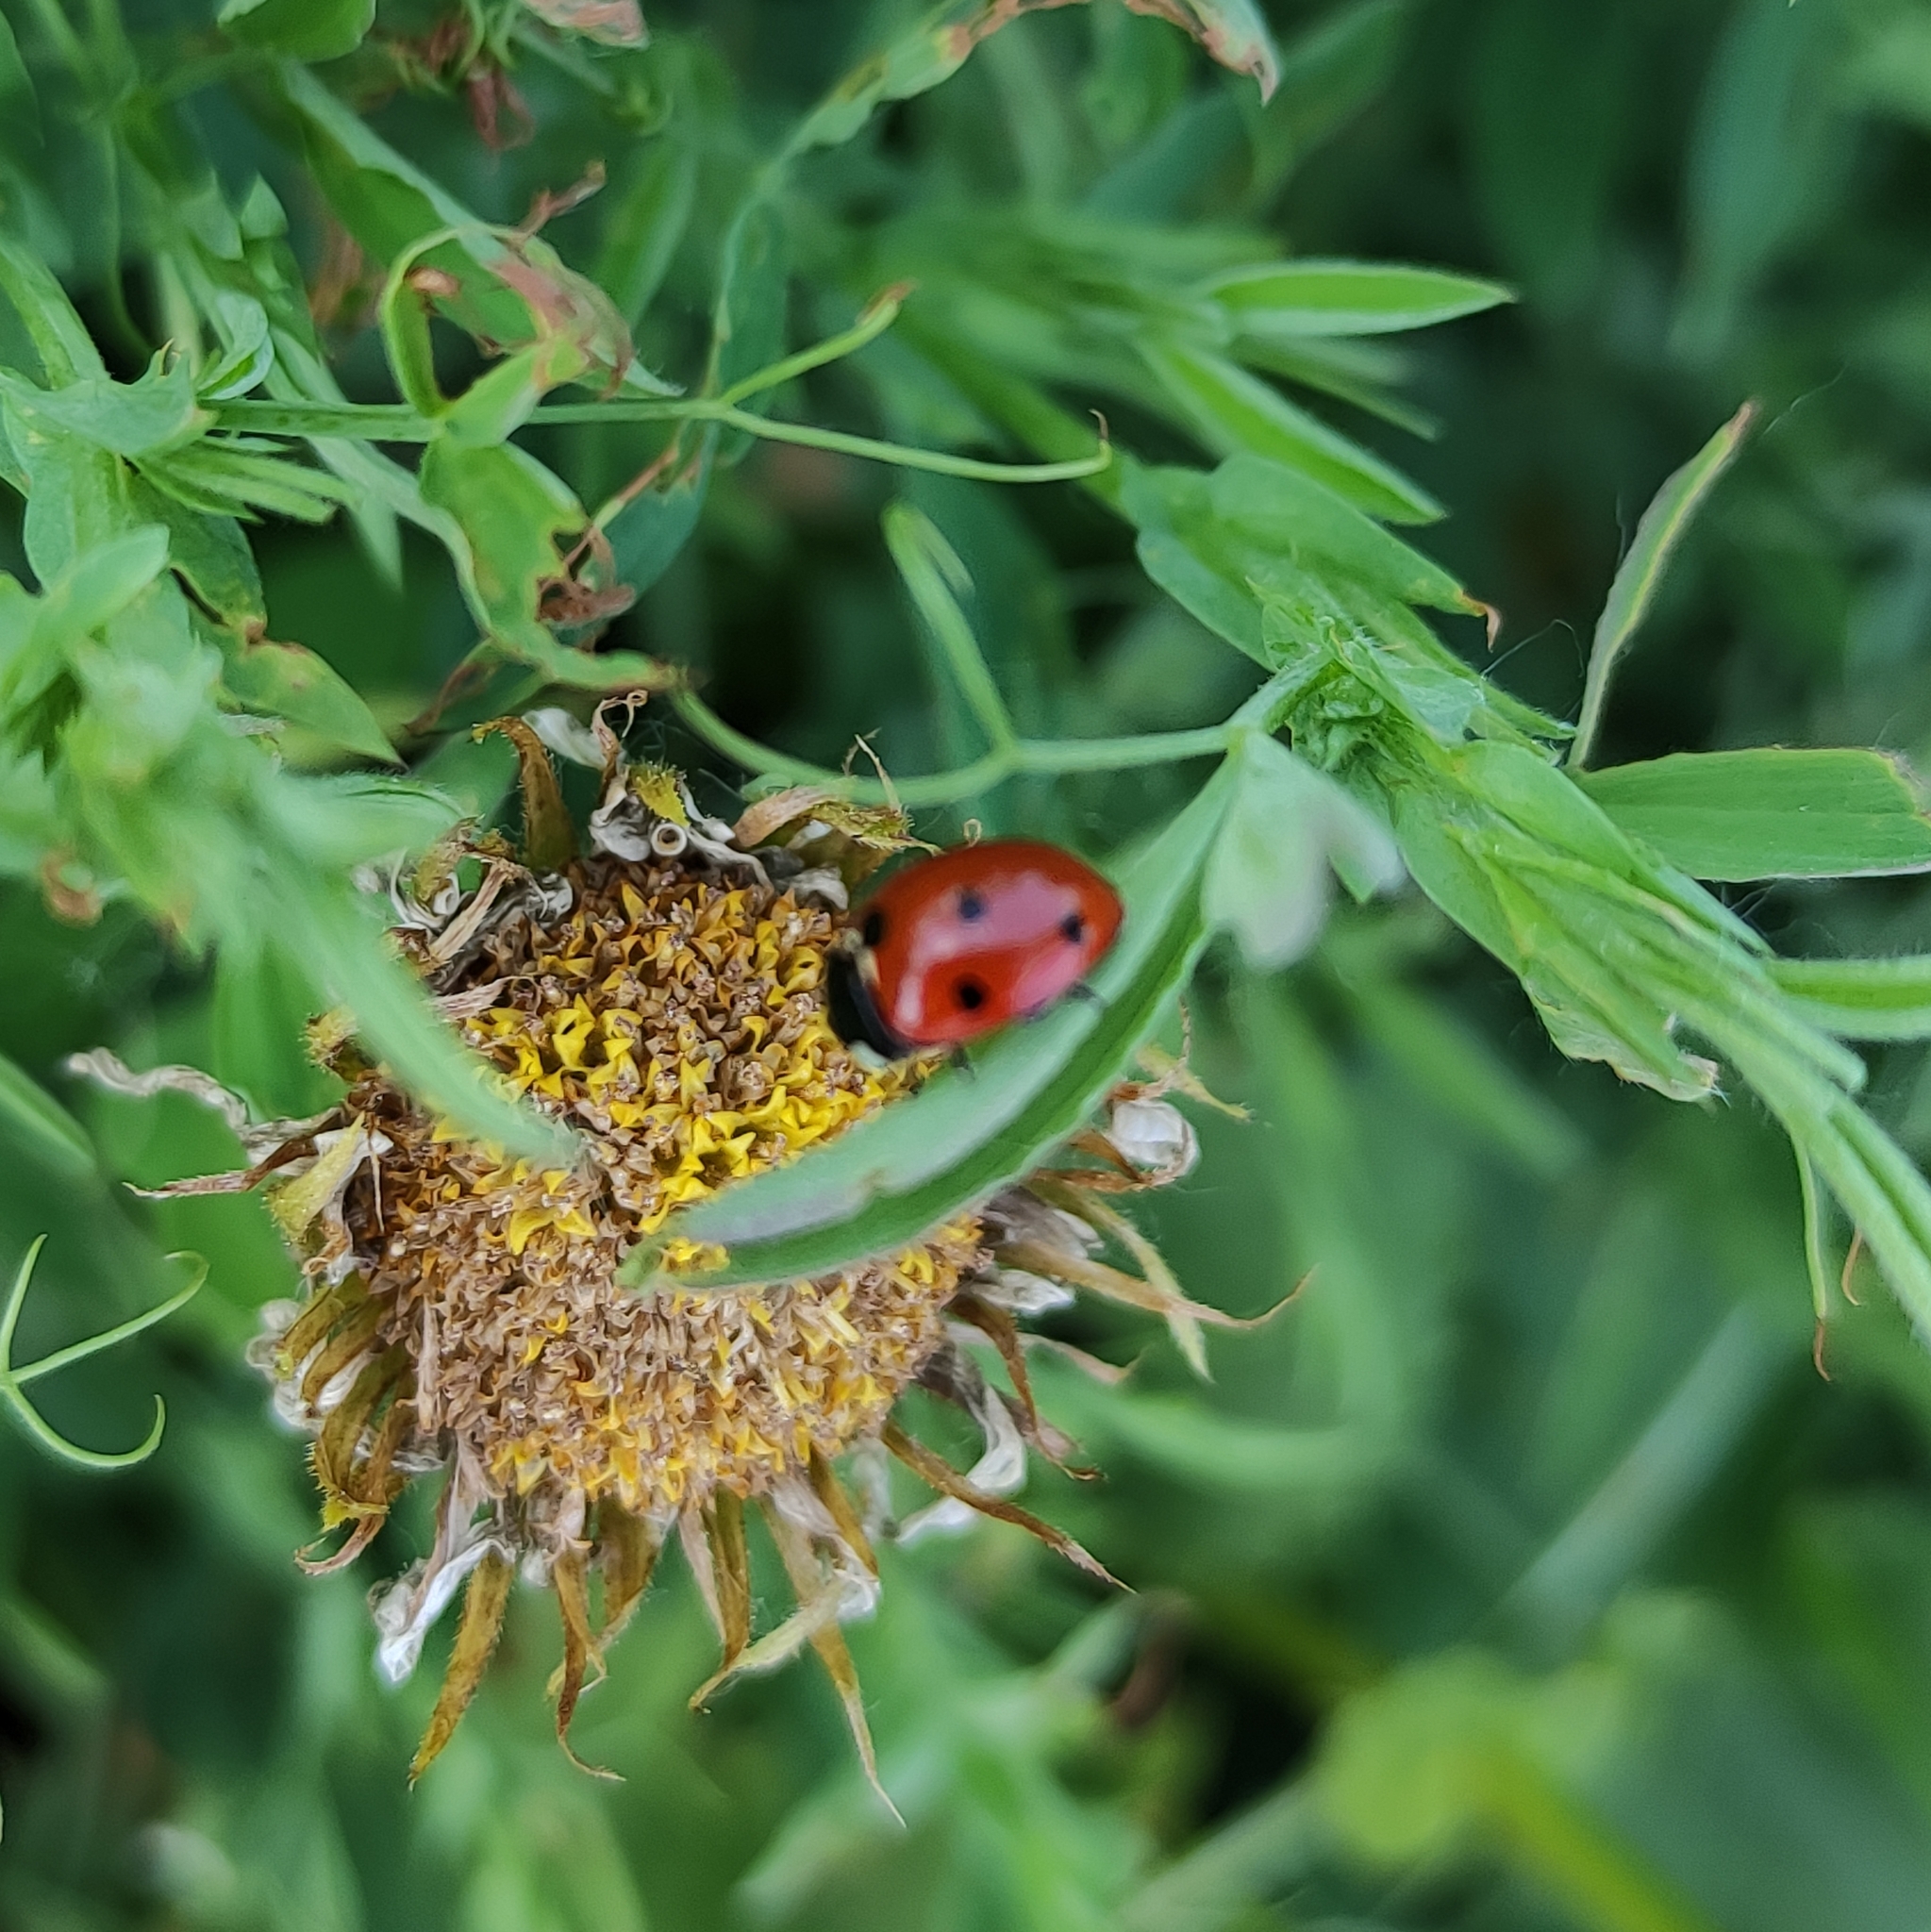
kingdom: Animalia
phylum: Arthropoda
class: Insecta
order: Coleoptera
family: Coccinellidae
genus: Coccinella
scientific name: Coccinella septempunctata
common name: Sevenspotted lady beetle
